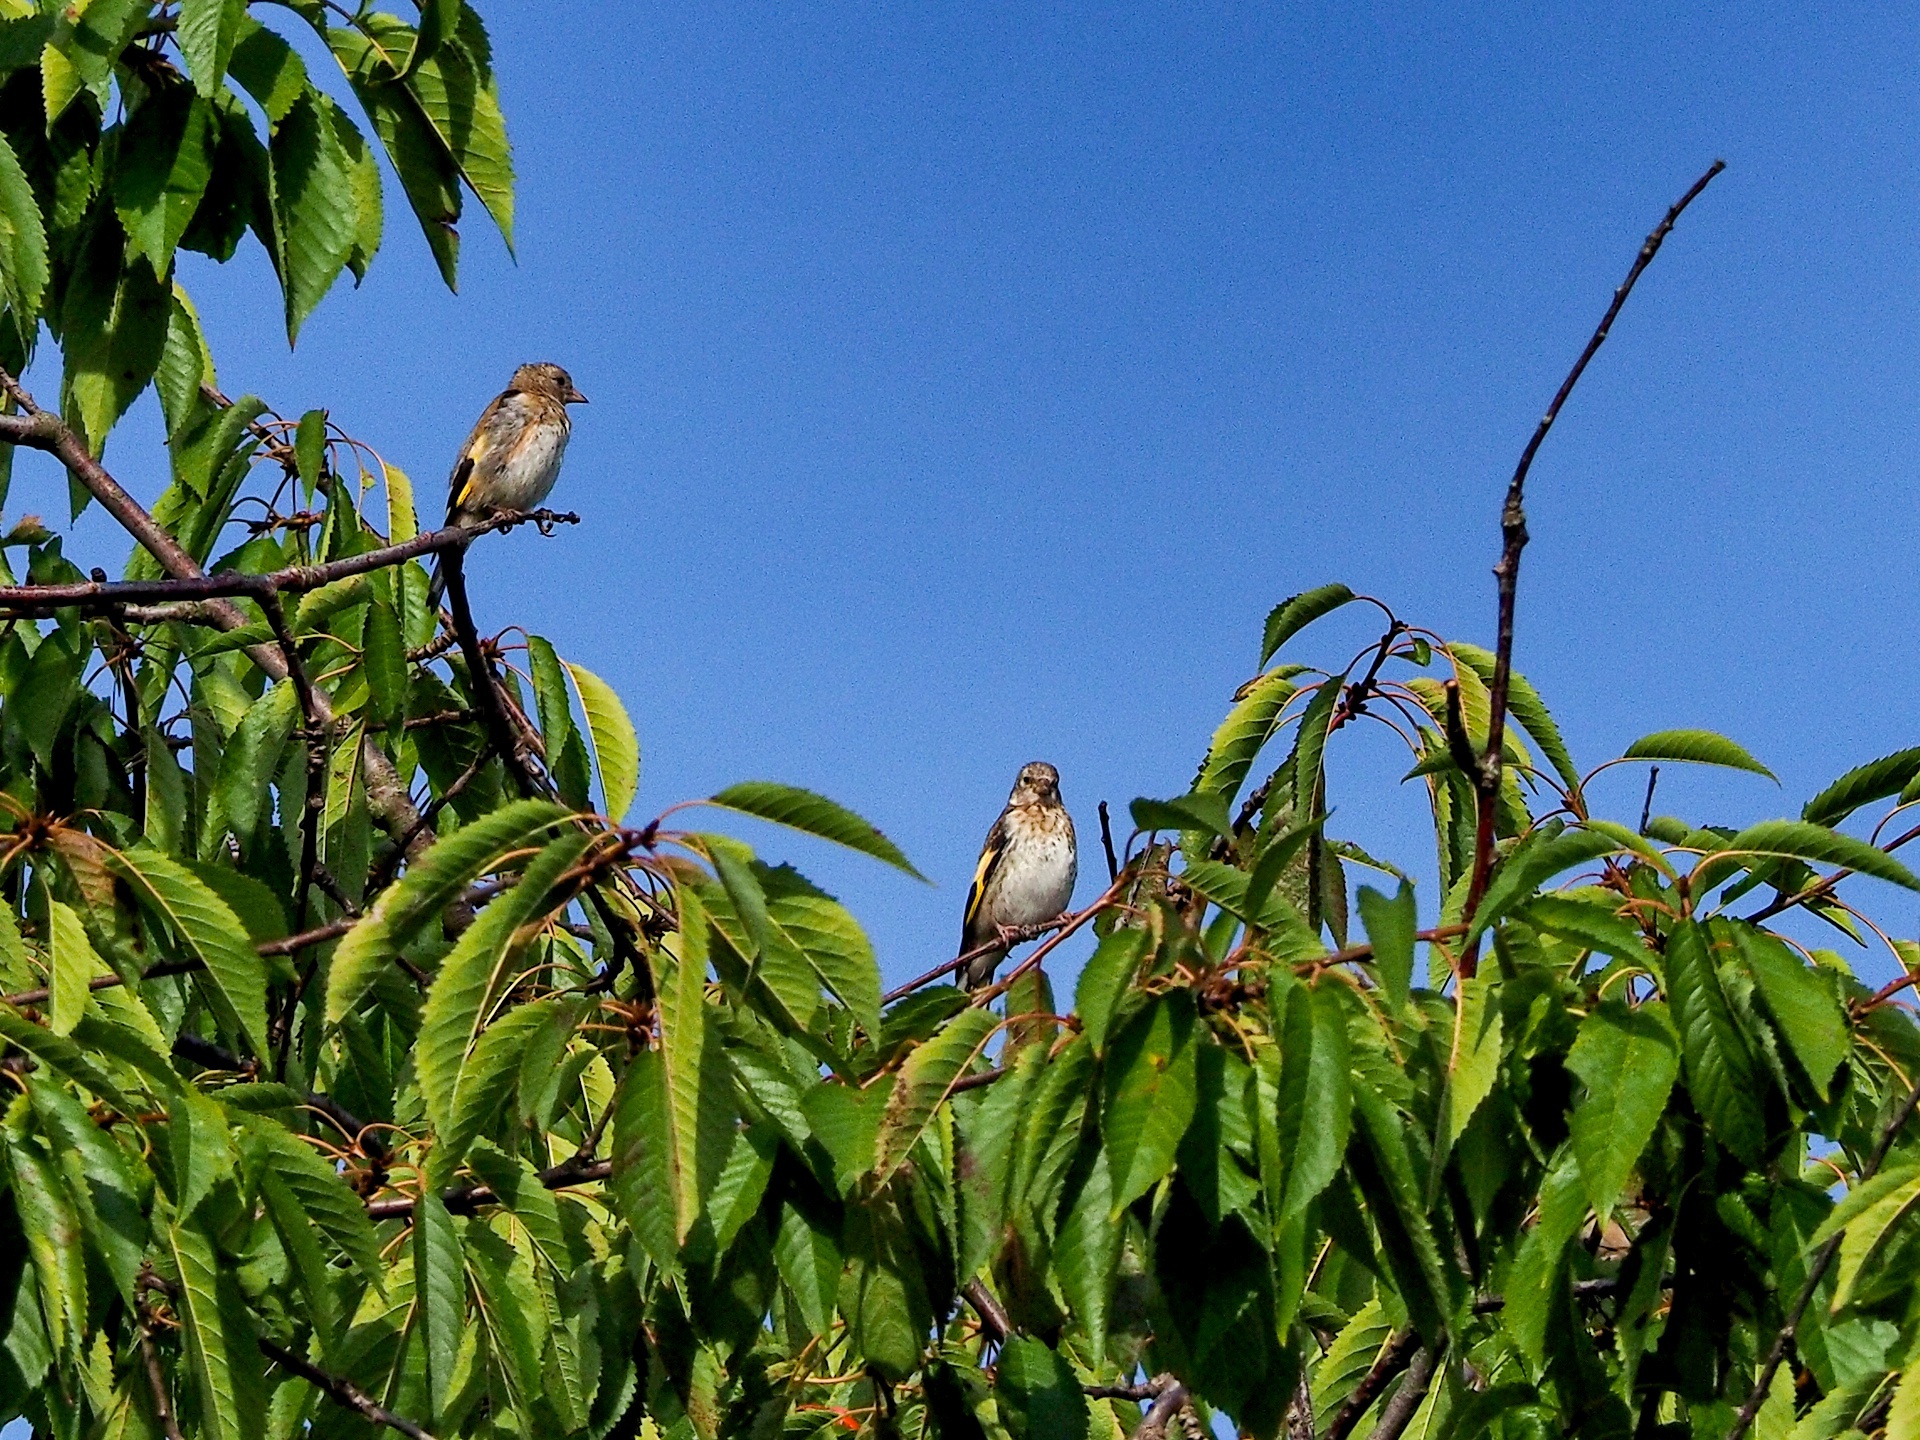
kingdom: Animalia
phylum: Chordata
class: Aves
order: Passeriformes
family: Fringillidae
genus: Carduelis
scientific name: Carduelis carduelis
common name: European goldfinch
